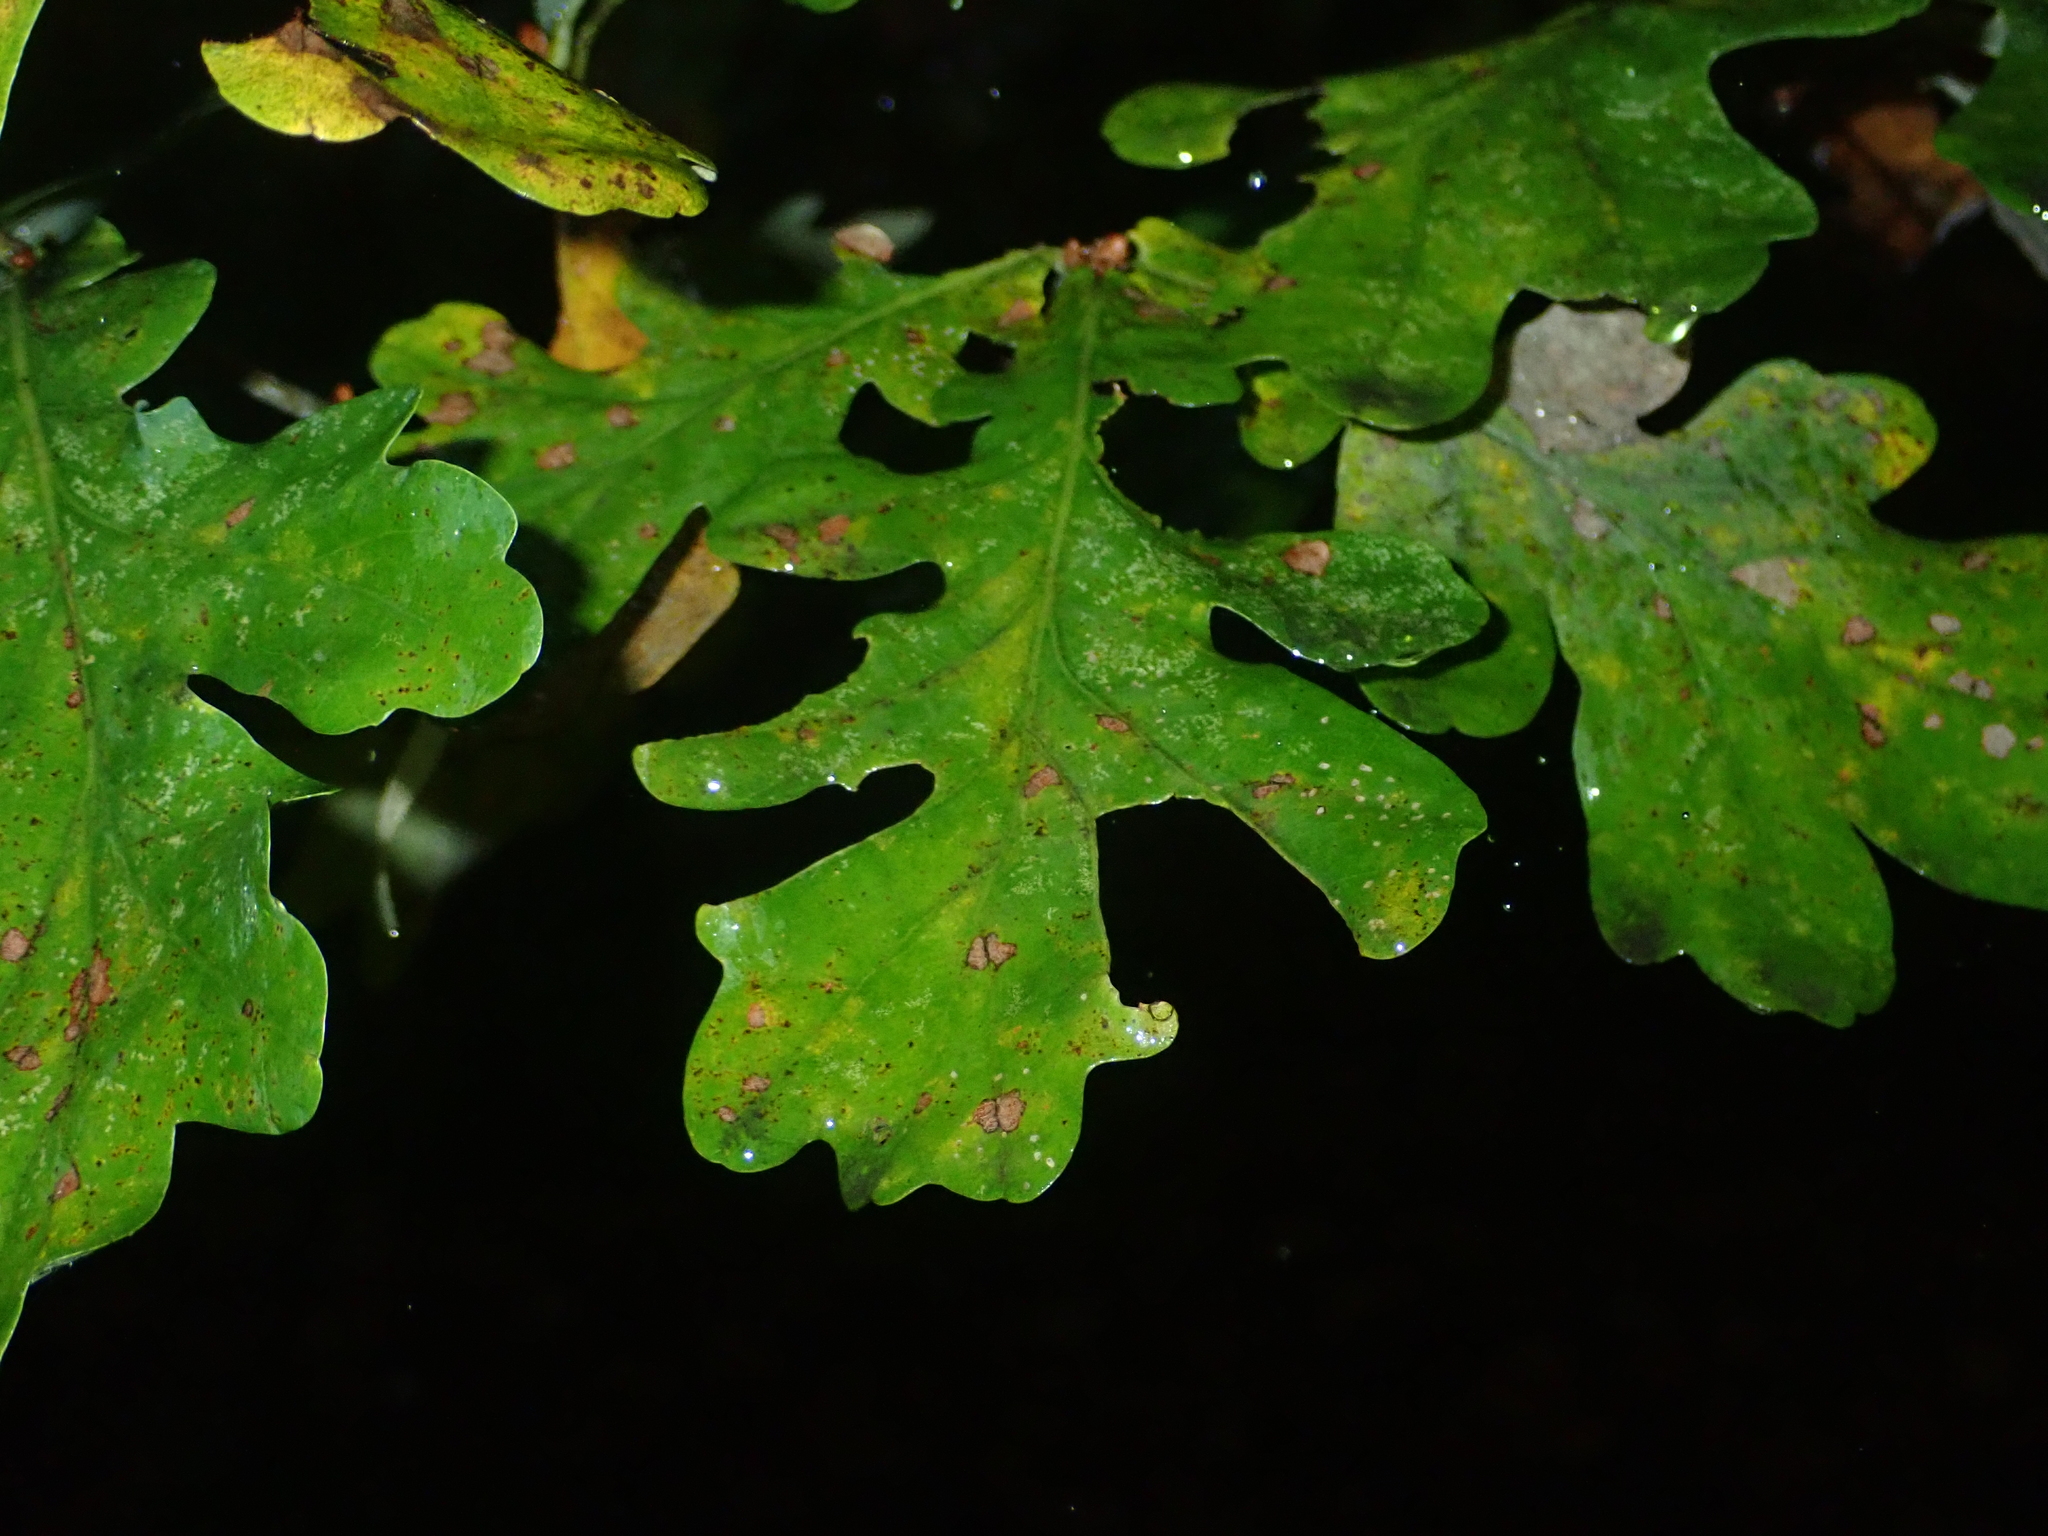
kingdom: Plantae
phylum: Tracheophyta
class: Magnoliopsida
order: Fagales
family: Fagaceae
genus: Quercus
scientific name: Quercus robur
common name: Pedunculate oak
